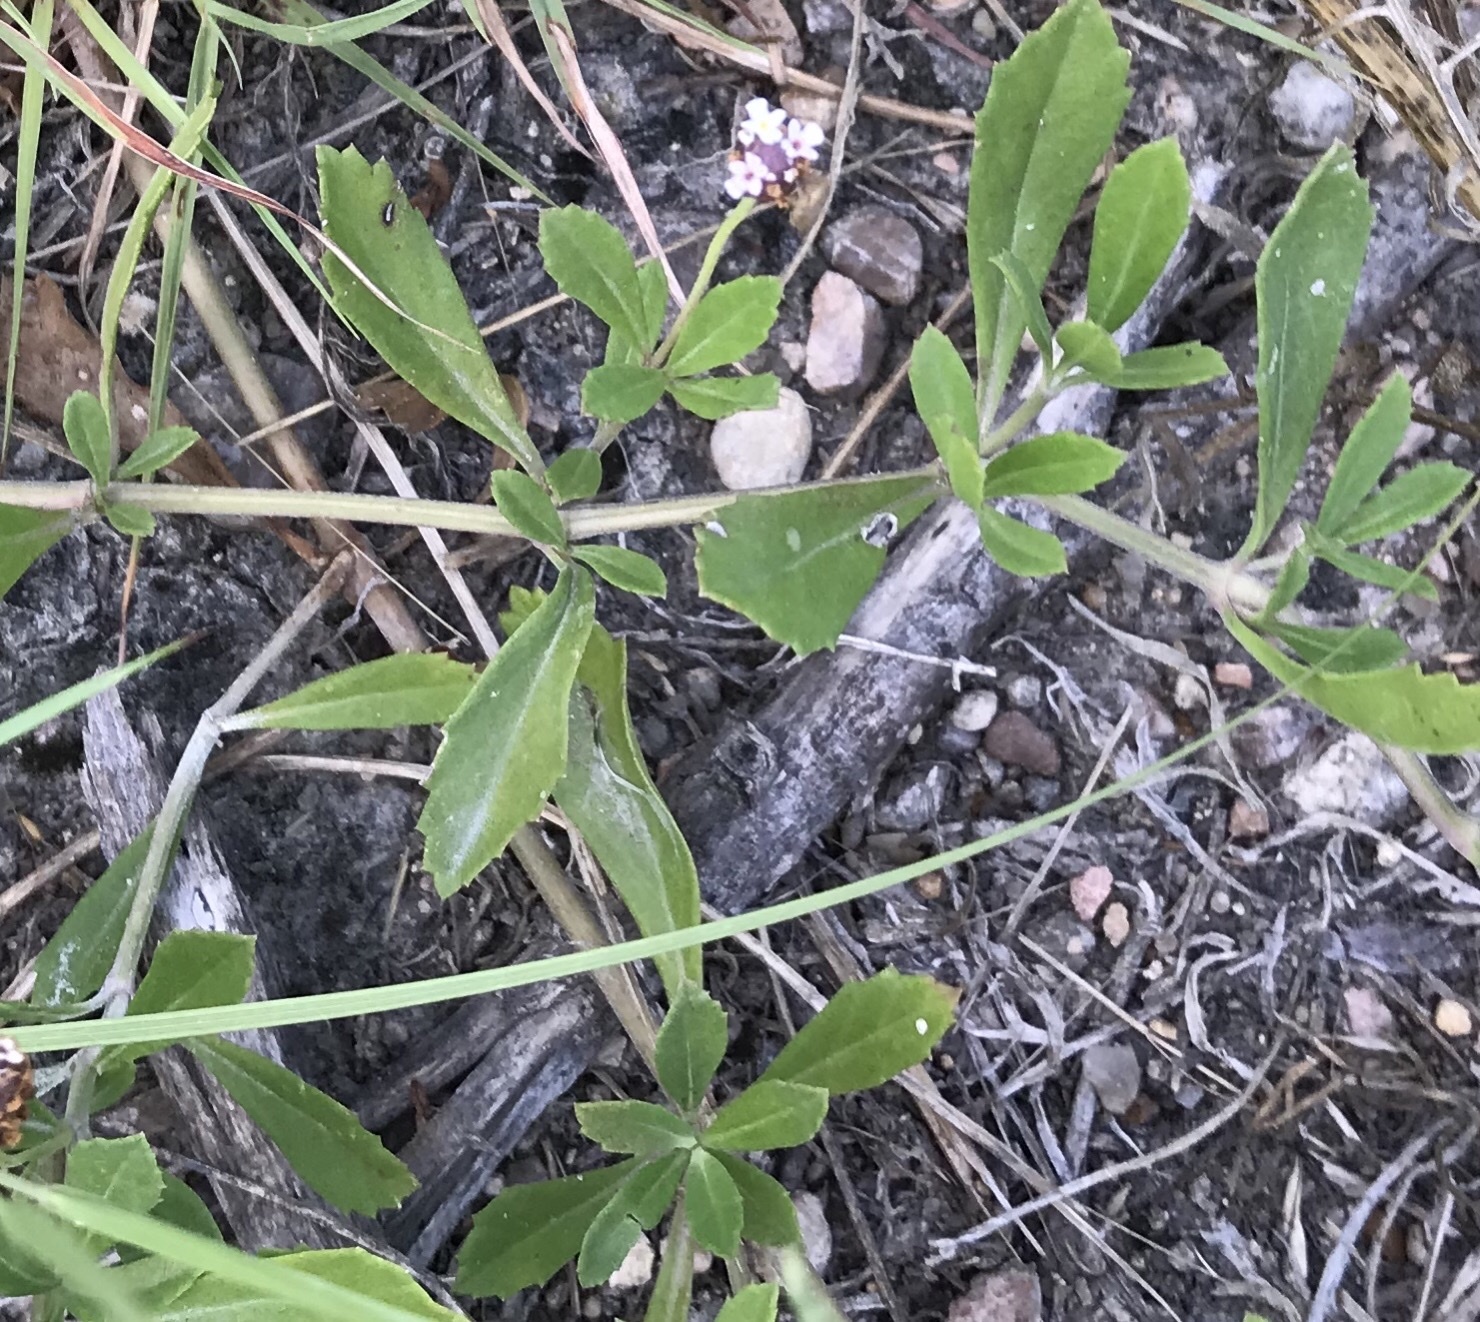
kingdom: Plantae
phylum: Tracheophyta
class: Magnoliopsida
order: Lamiales
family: Verbenaceae
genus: Phyla
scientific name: Phyla nodiflora
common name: Frogfruit
